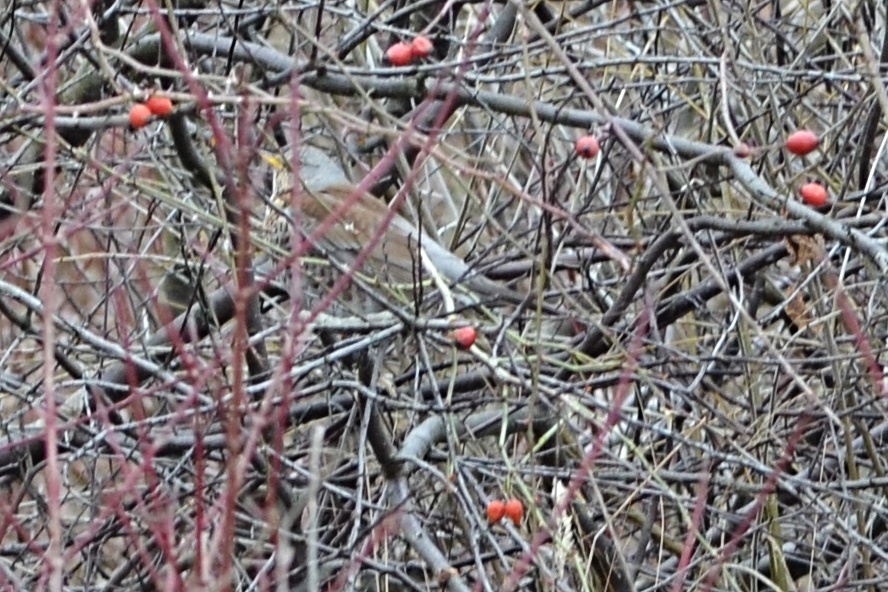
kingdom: Animalia
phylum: Chordata
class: Aves
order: Passeriformes
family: Turdidae
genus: Turdus
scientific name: Turdus pilaris
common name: Fieldfare
